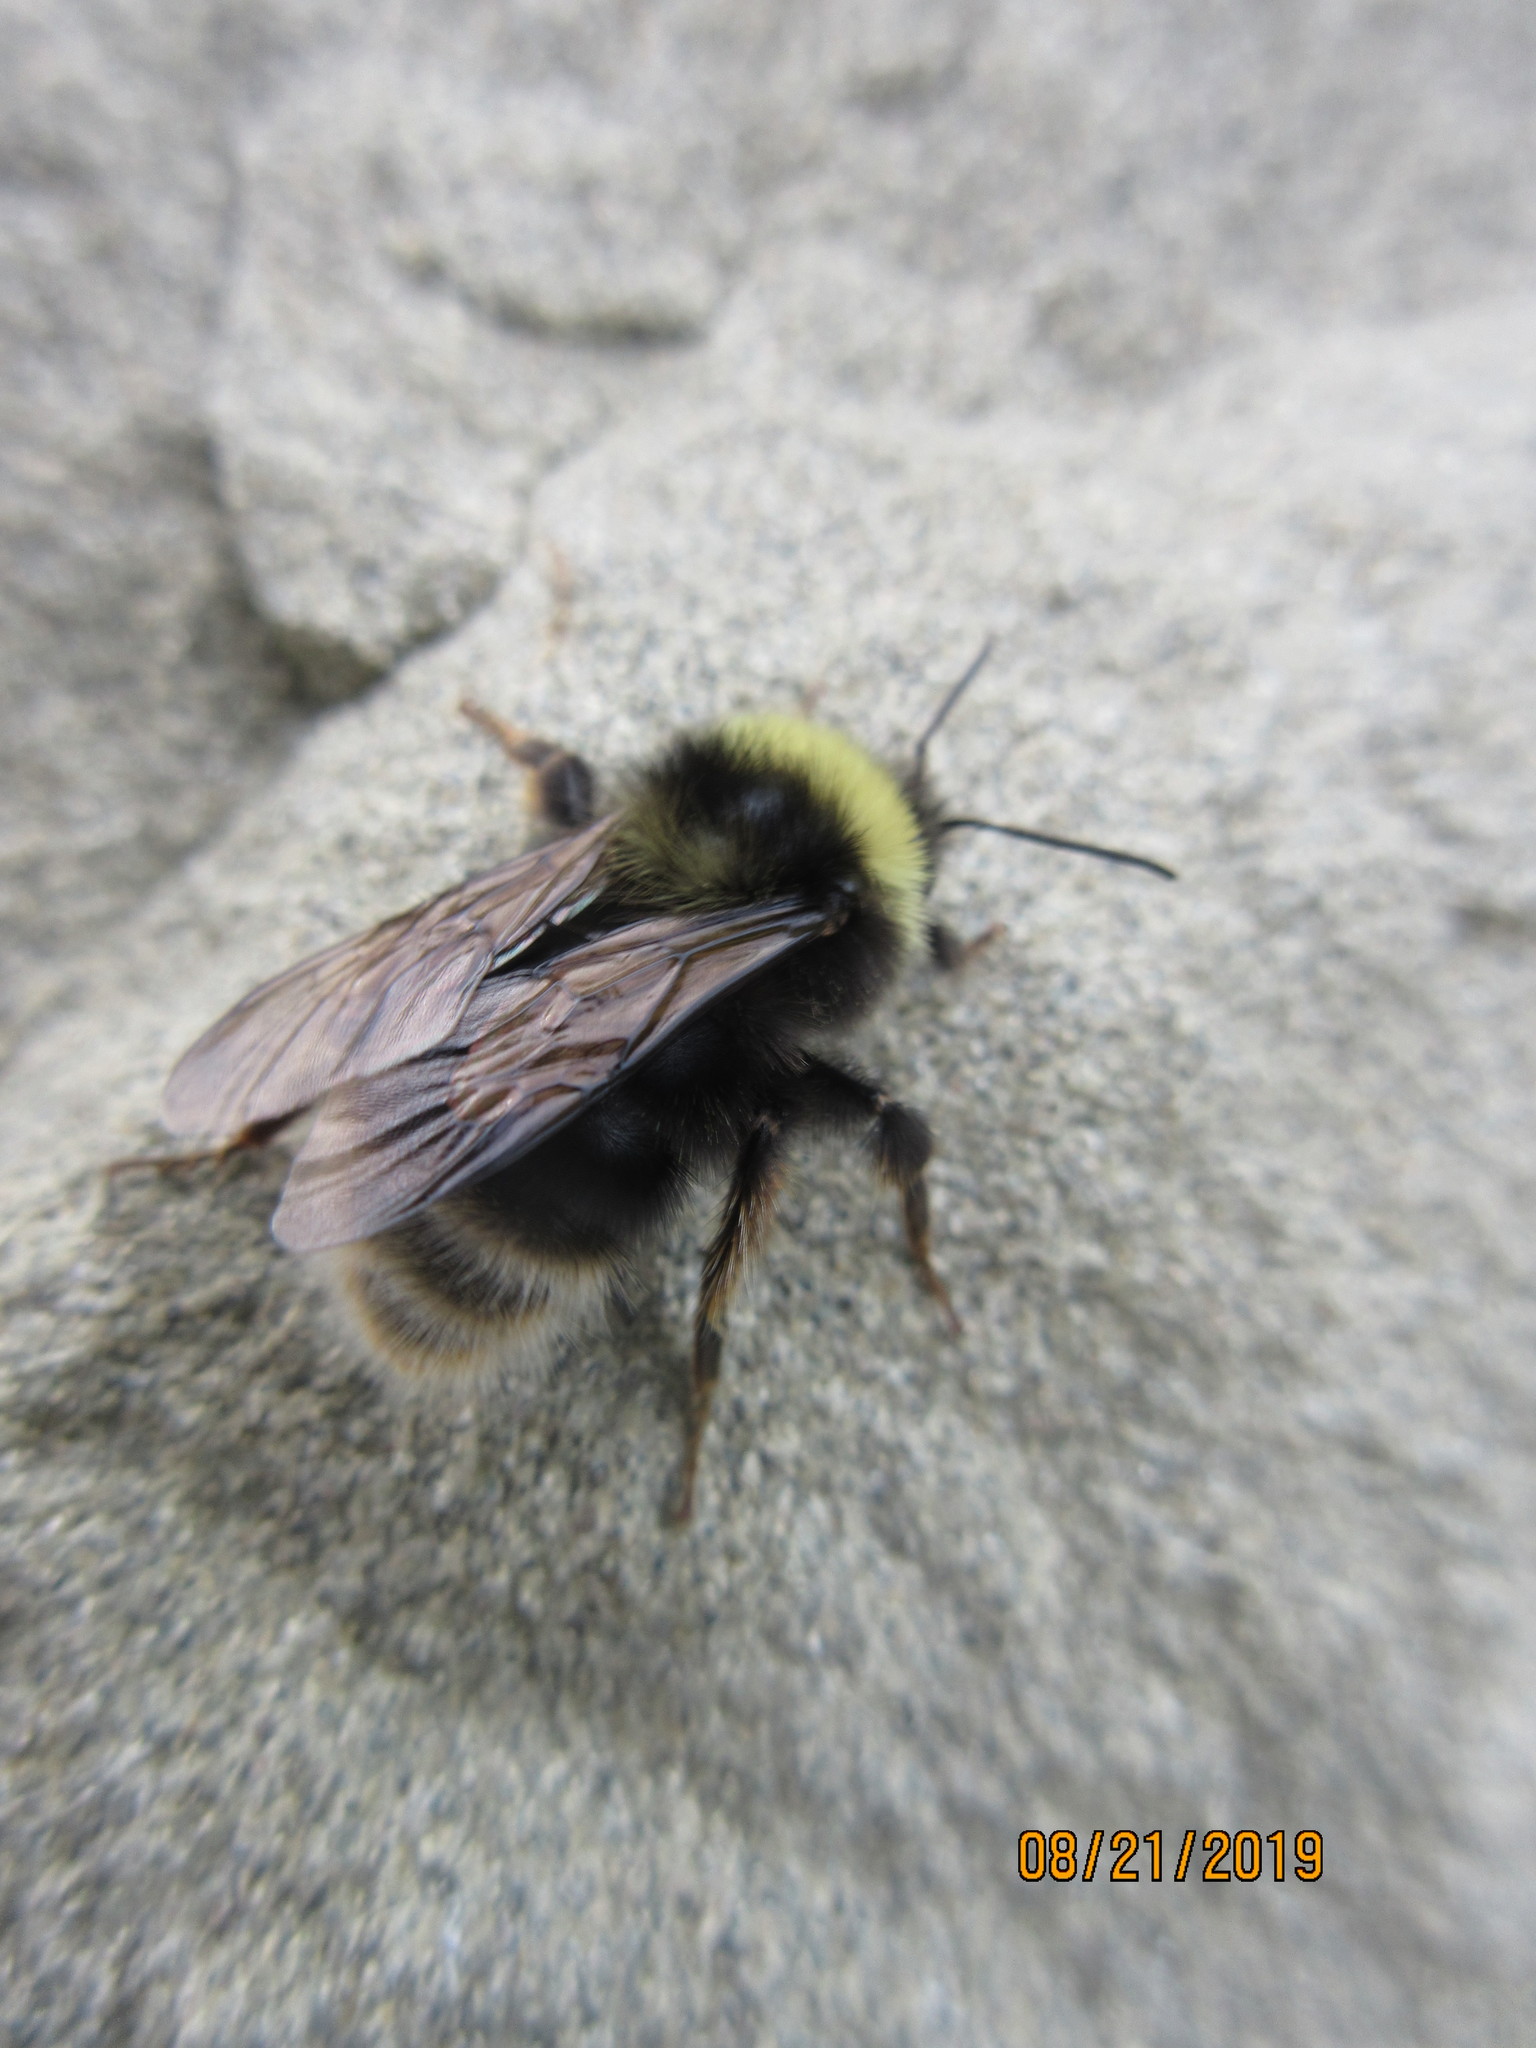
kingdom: Animalia
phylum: Arthropoda
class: Insecta
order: Hymenoptera
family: Apidae
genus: Bombus
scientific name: Bombus occidentalis
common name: Western bumble bee
